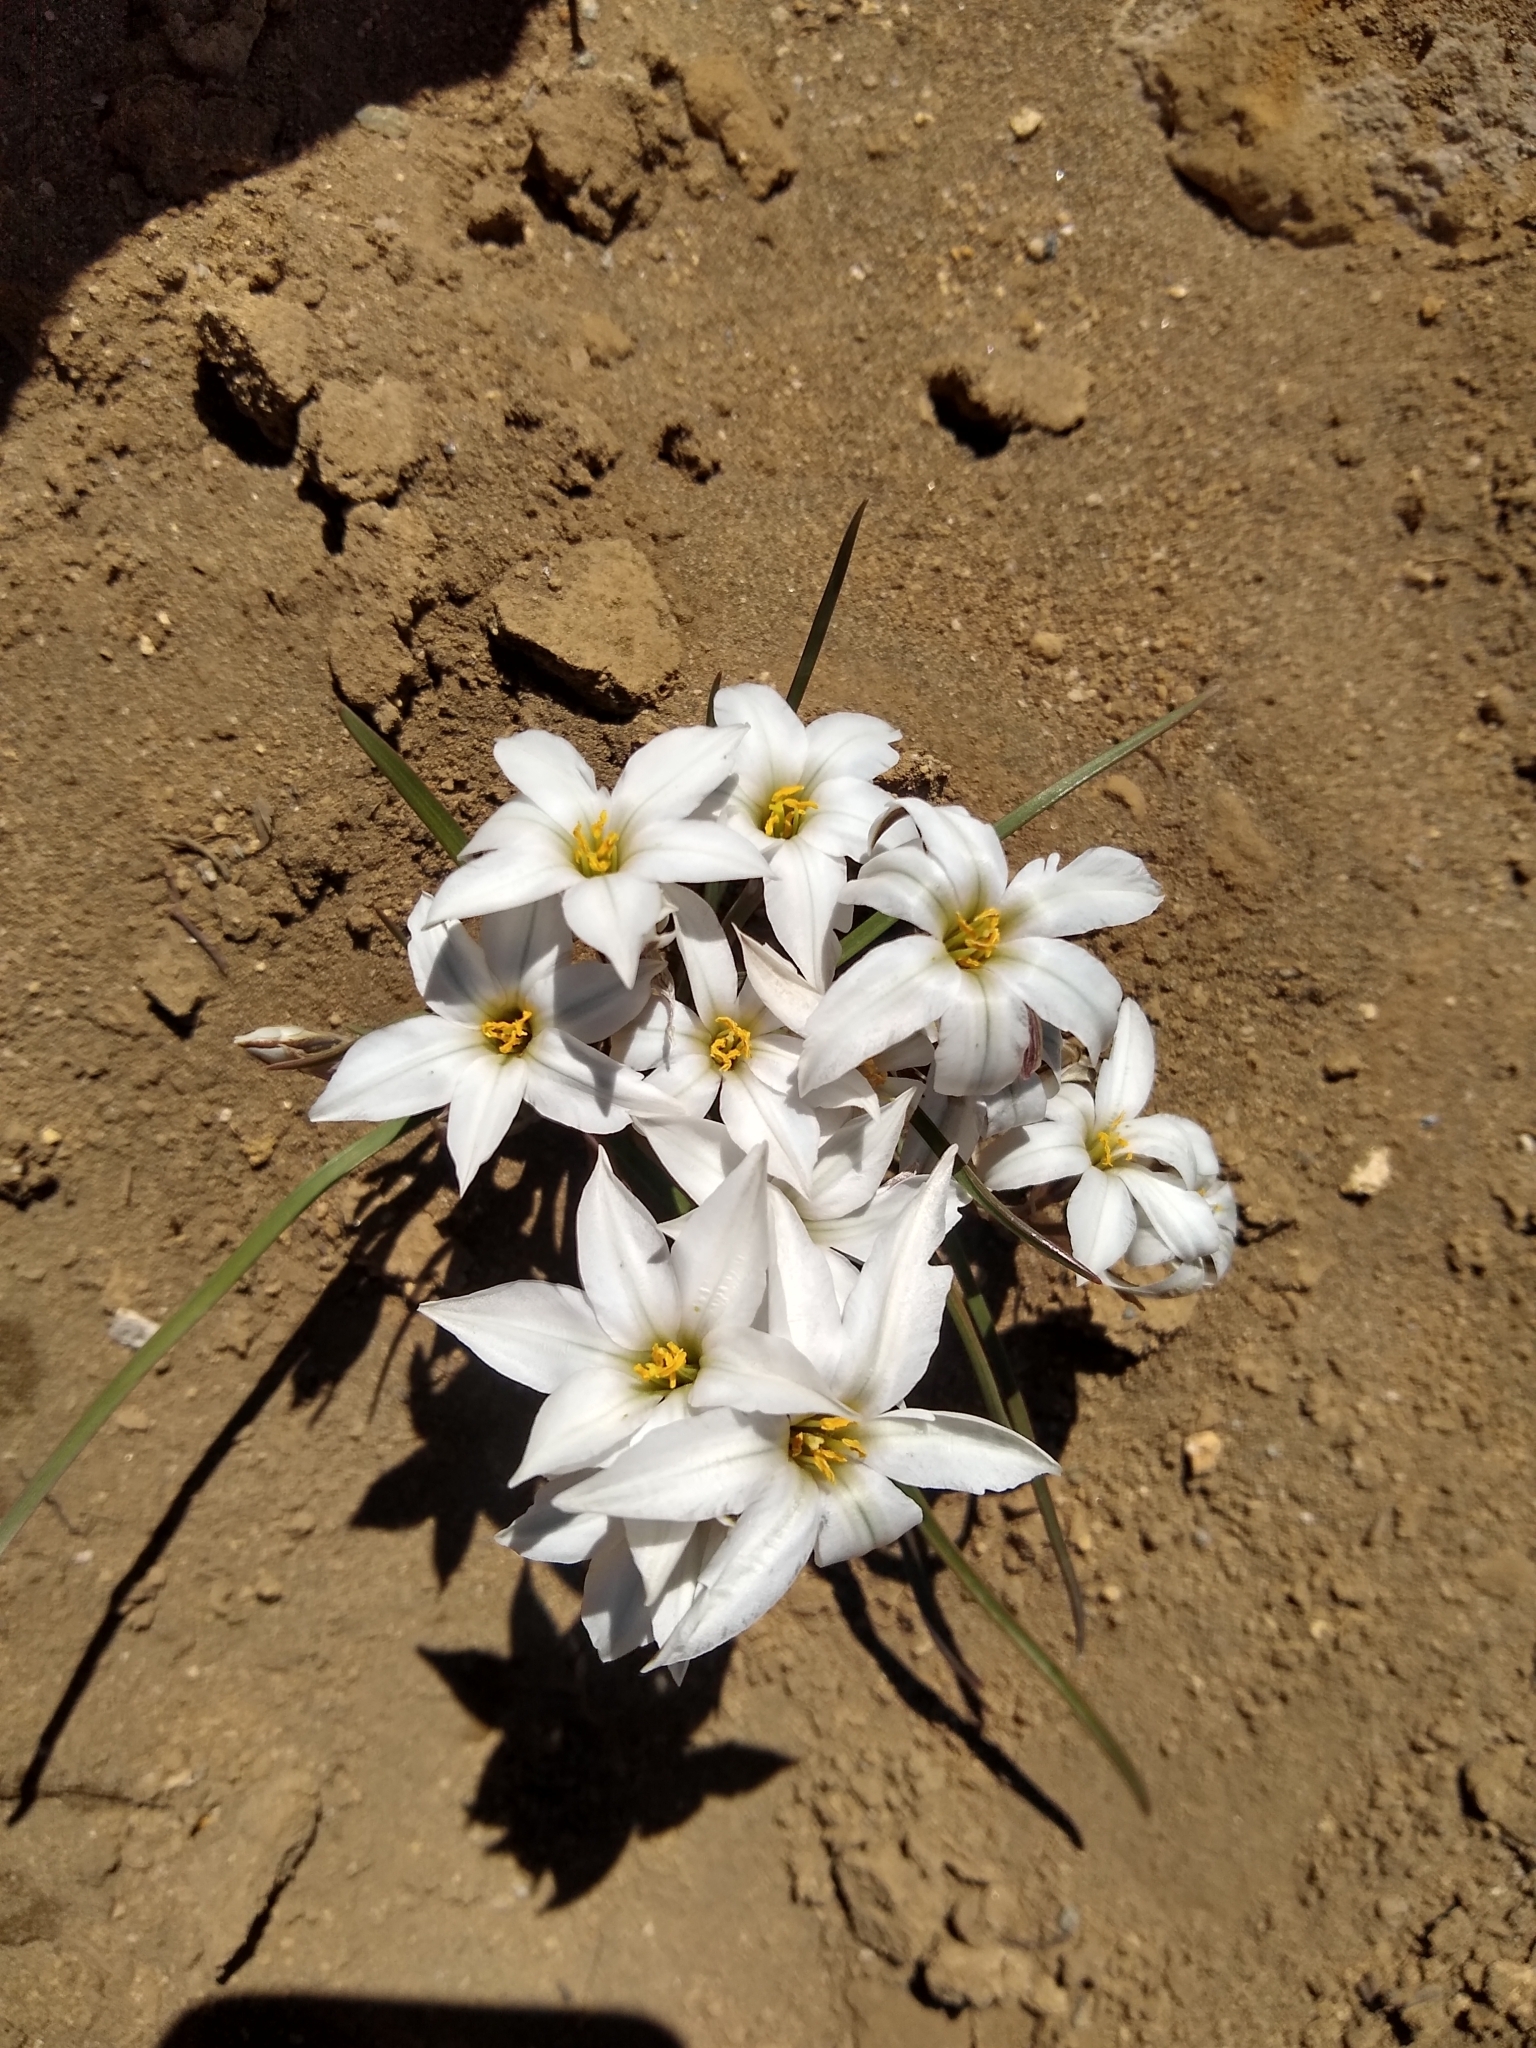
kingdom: Plantae
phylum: Tracheophyta
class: Liliopsida
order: Asparagales
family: Amaryllidaceae
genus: Tristagma
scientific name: Tristagma patagonicum
